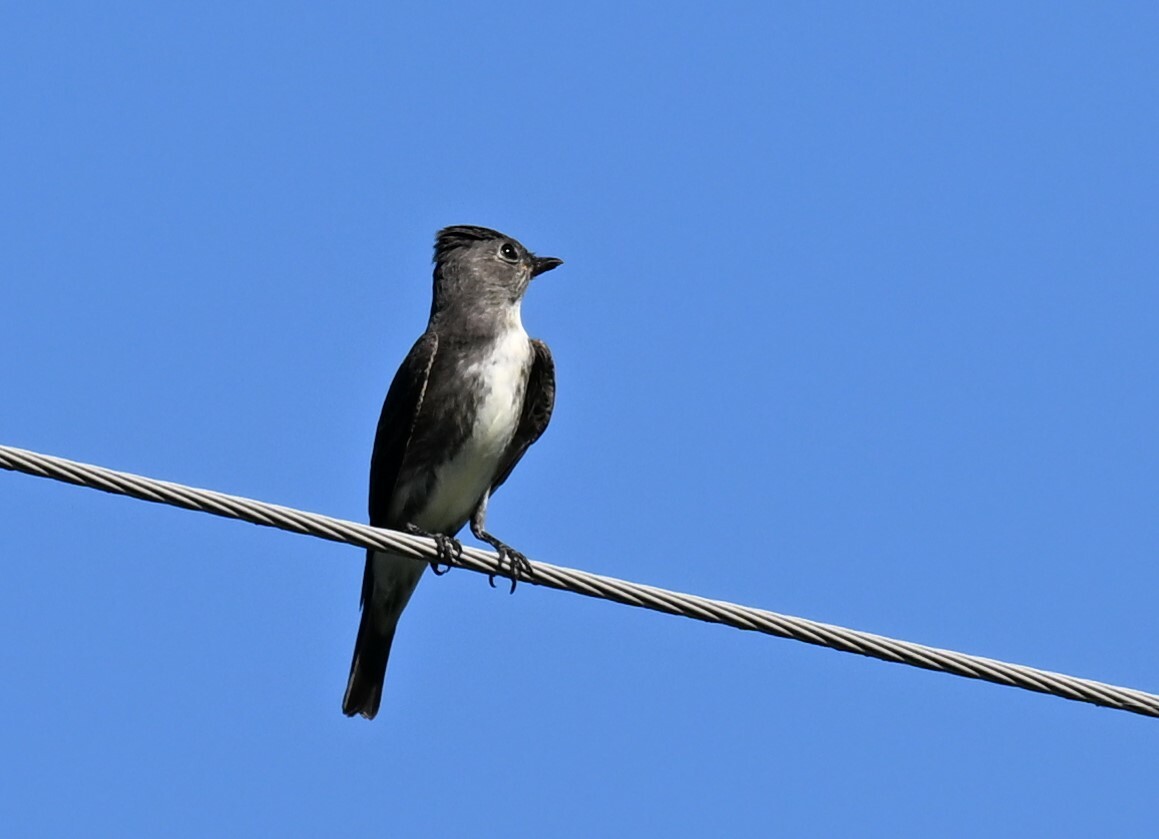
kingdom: Animalia
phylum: Chordata
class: Aves
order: Passeriformes
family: Tyrannidae
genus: Contopus
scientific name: Contopus cooperi
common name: Olive-sided flycatcher
